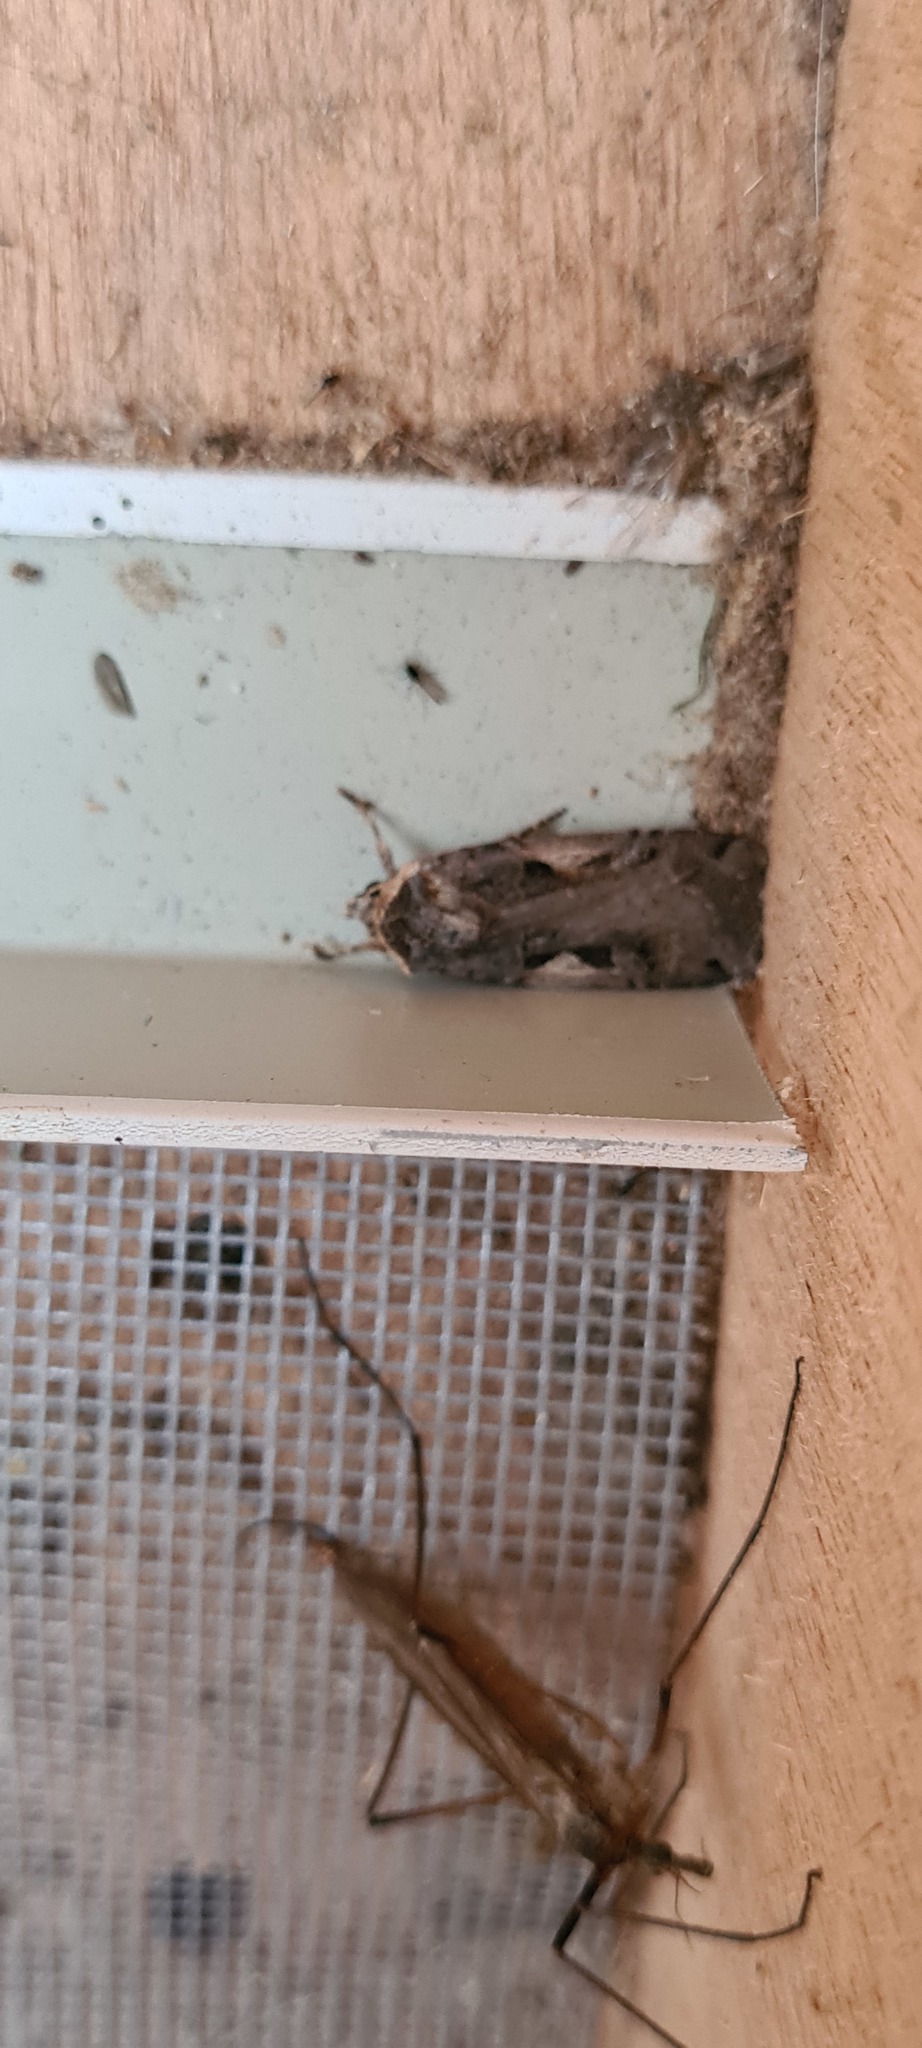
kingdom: Animalia
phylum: Arthropoda
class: Insecta
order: Lepidoptera
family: Noctuidae
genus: Xestia
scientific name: Xestia c-nigrum
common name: Setaceous hebrew character
